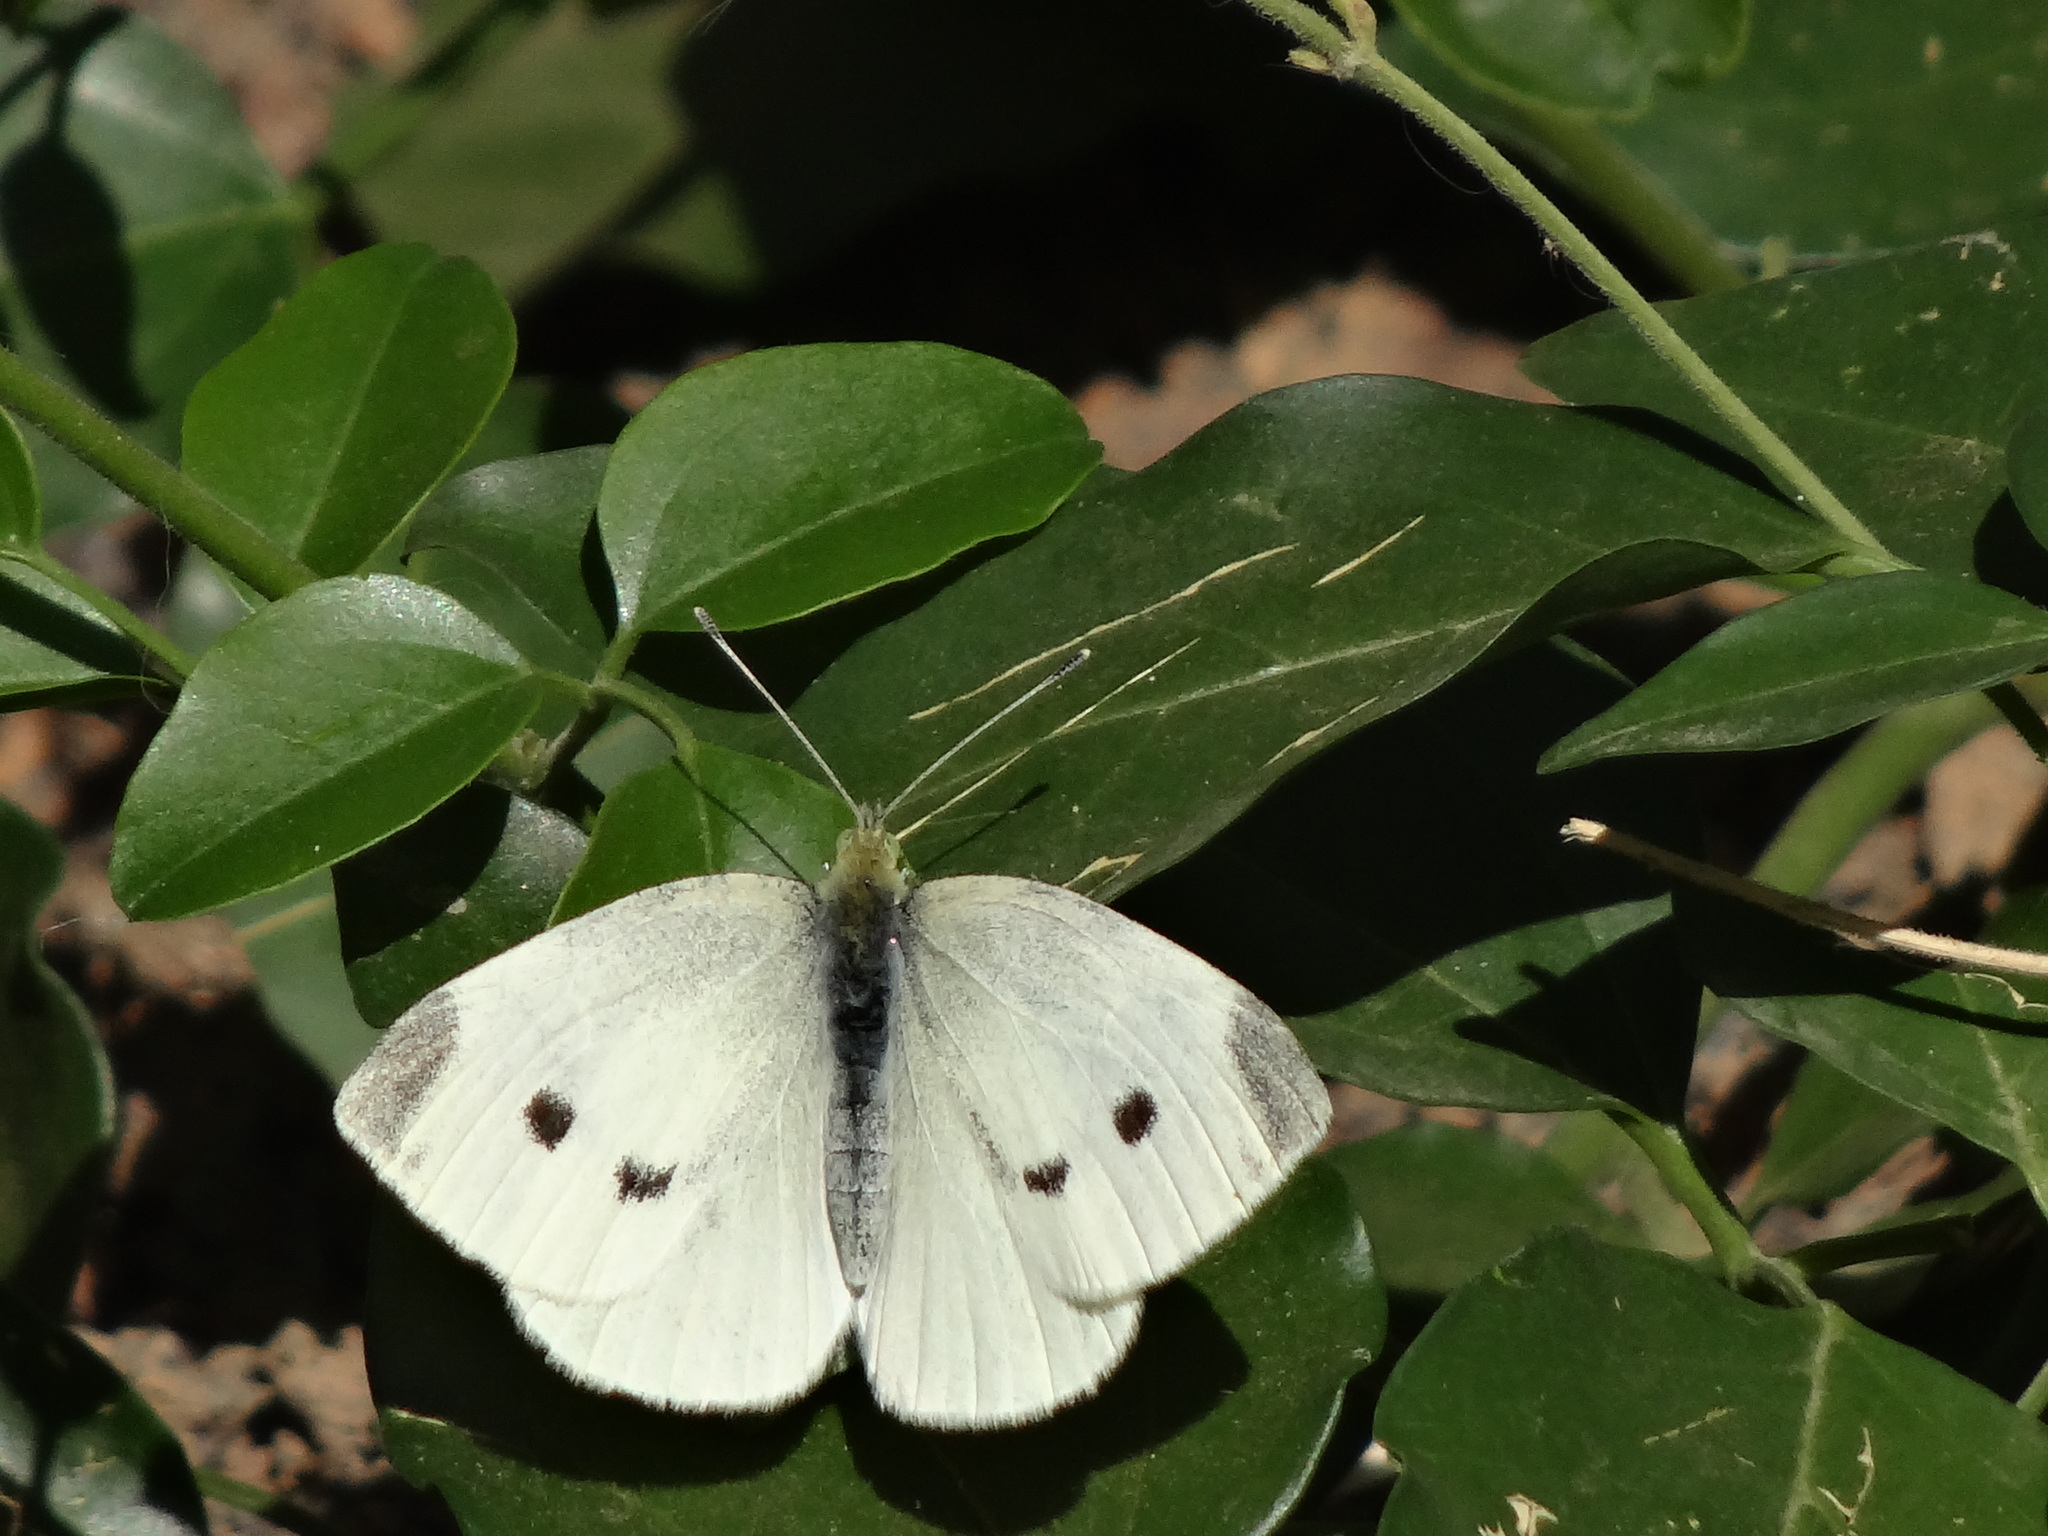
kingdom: Animalia
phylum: Arthropoda
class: Insecta
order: Lepidoptera
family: Pieridae
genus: Pieris
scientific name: Pieris rapae
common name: Small white
